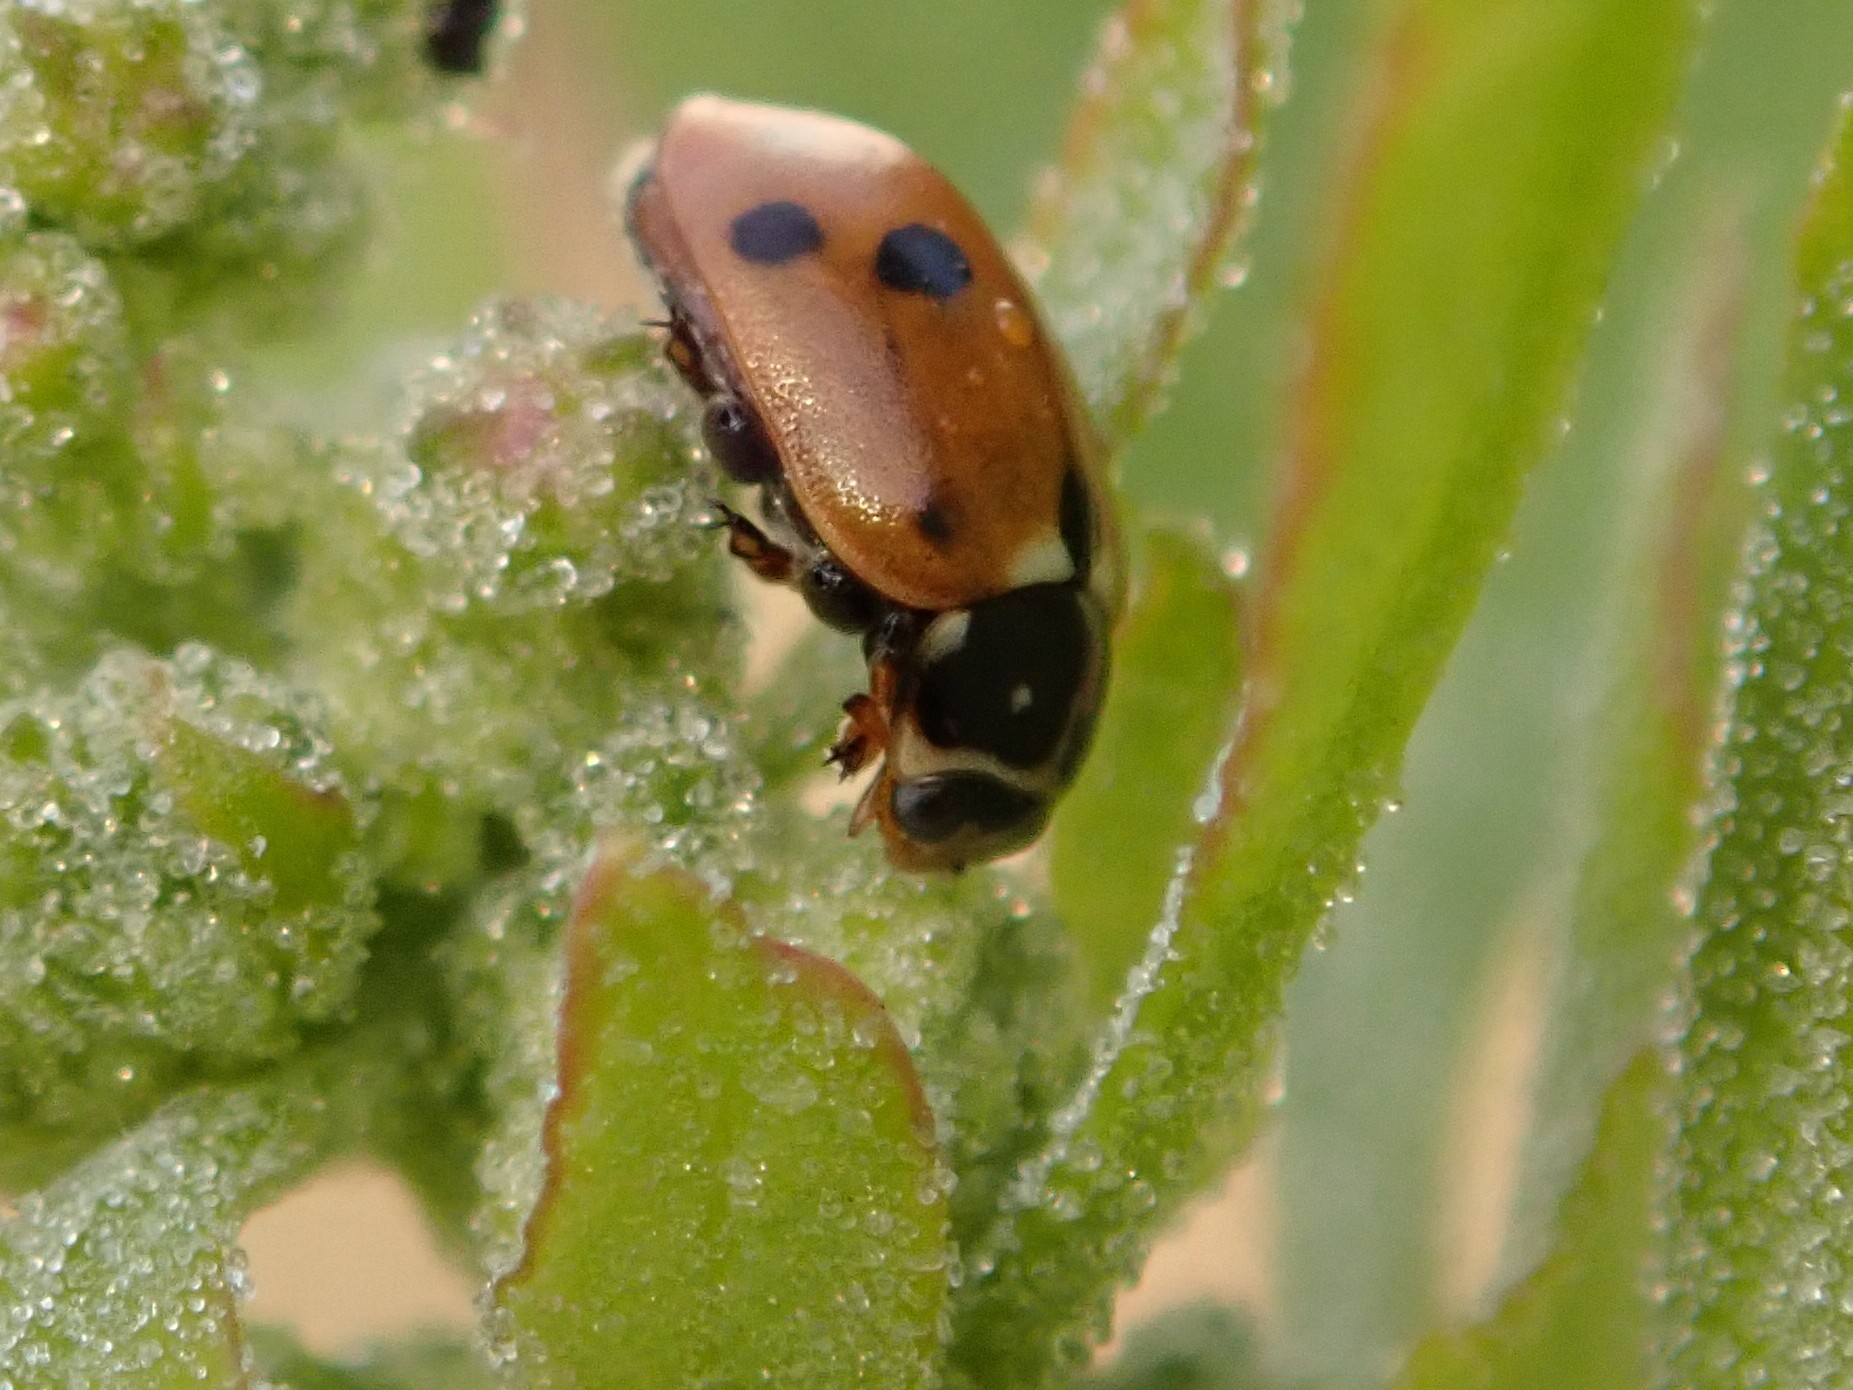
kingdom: Animalia
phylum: Arthropoda
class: Insecta
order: Coleoptera
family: Coccinellidae
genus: Hippodamia
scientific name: Hippodamia variegata
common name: Ladybird beetle
